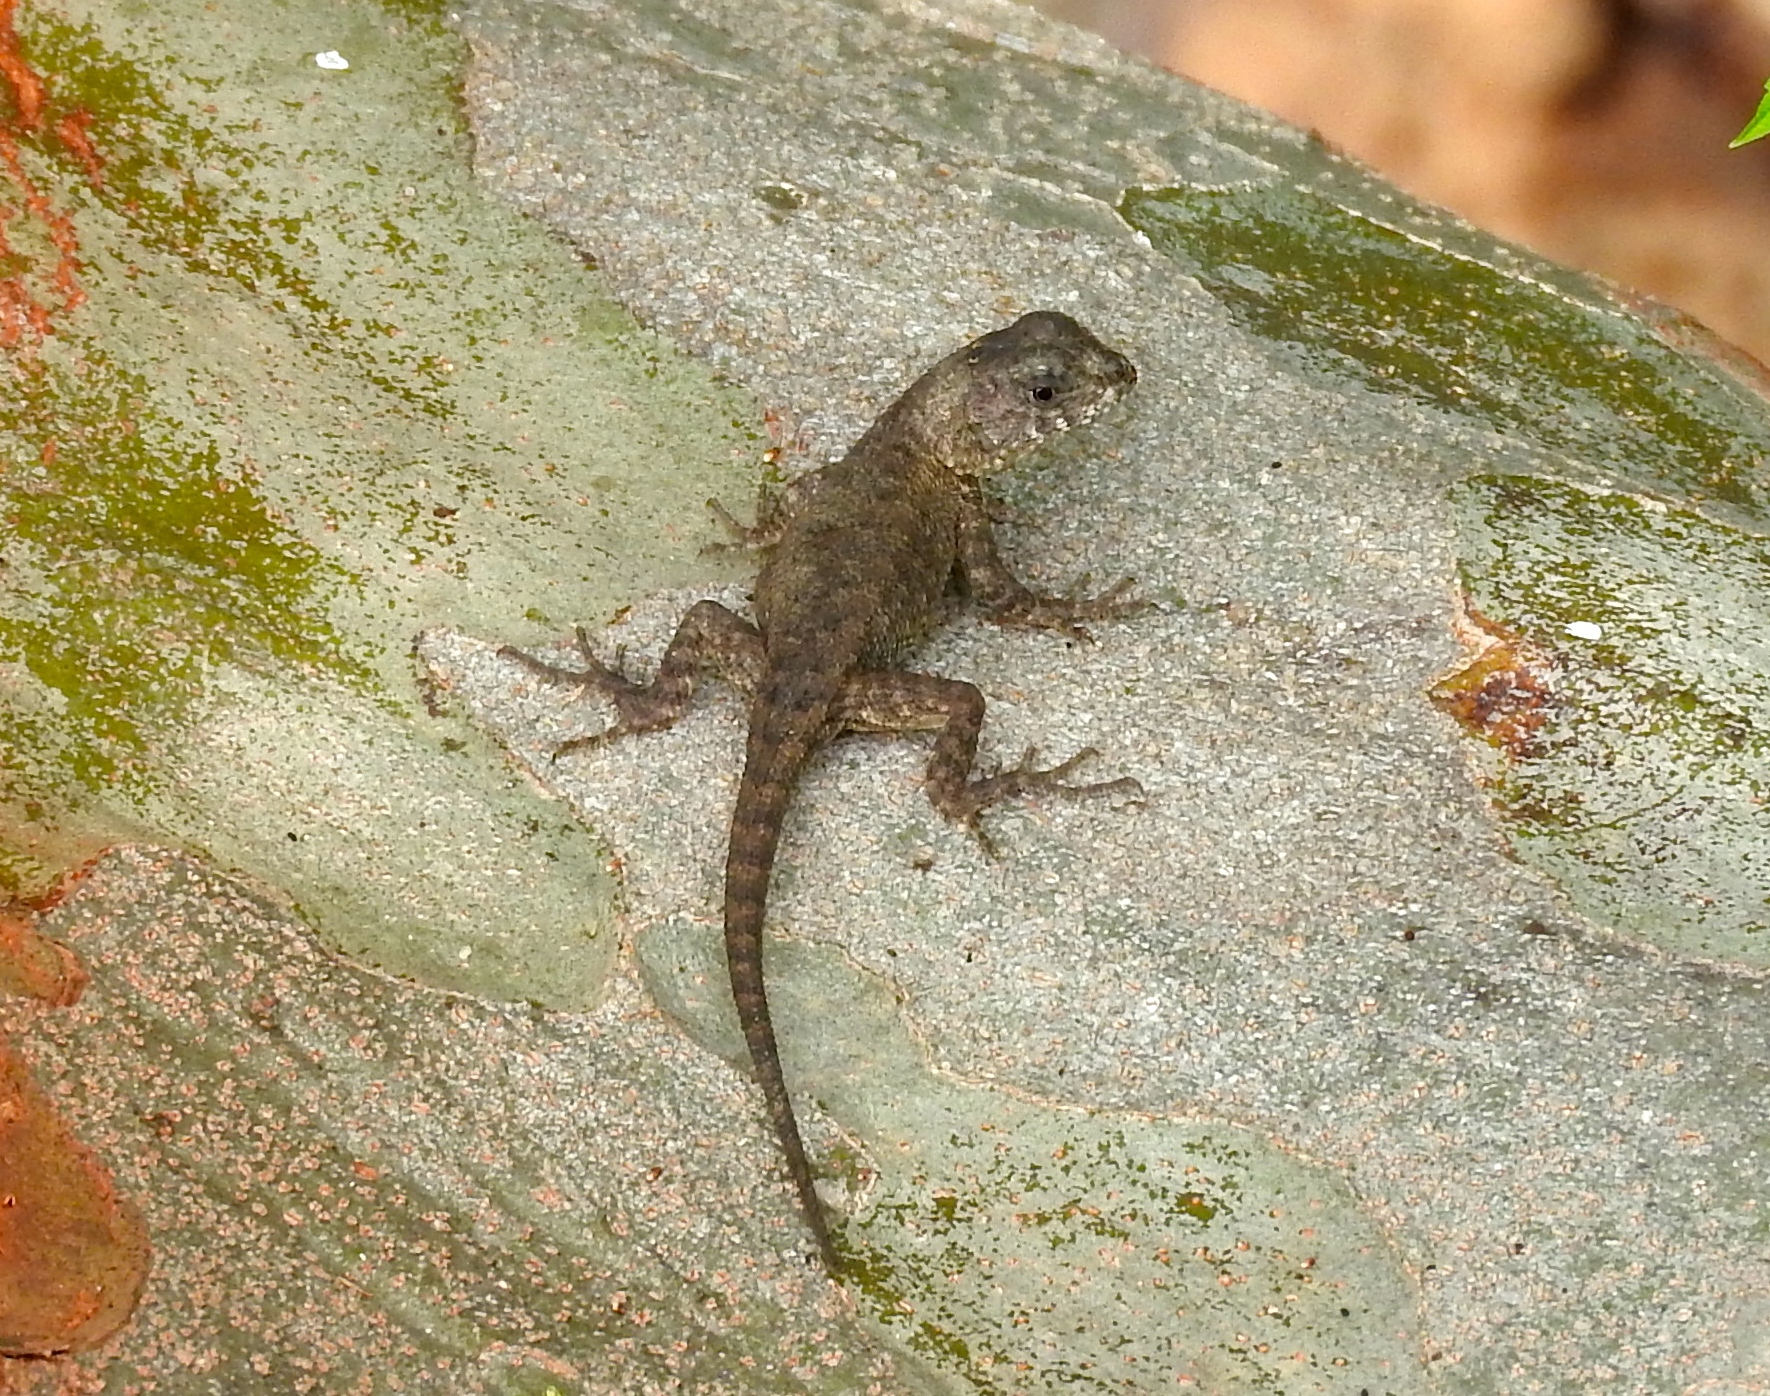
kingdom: Animalia
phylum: Chordata
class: Squamata
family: Phrynosomatidae
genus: Sceloporus
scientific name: Sceloporus nelsoni
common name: Nelson's spiny lizard
